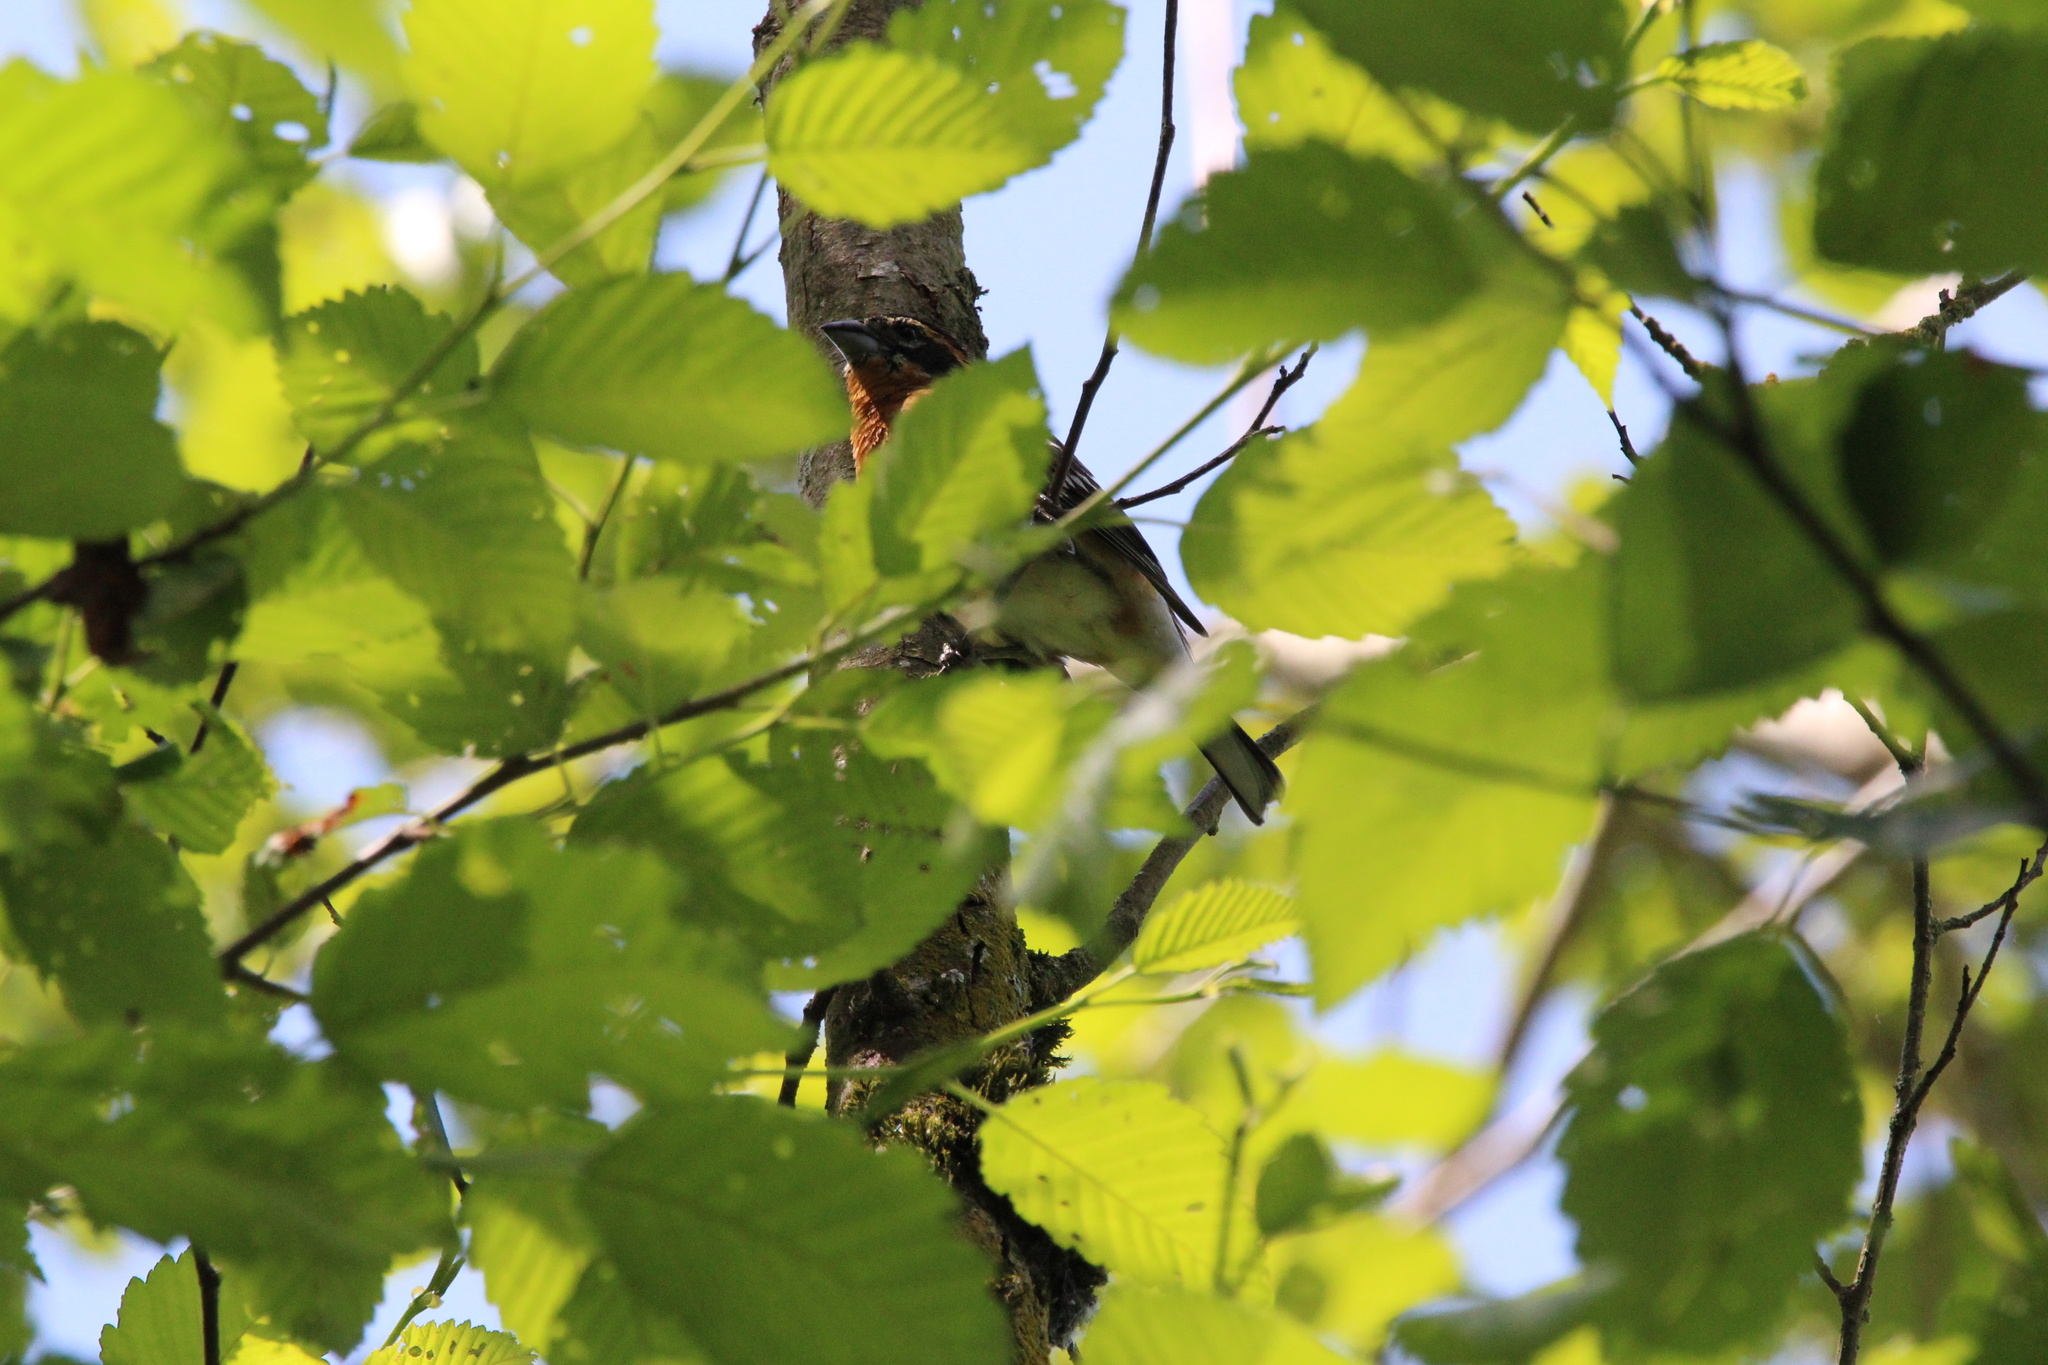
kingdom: Animalia
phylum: Chordata
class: Aves
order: Passeriformes
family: Cardinalidae
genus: Pheucticus
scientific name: Pheucticus melanocephalus
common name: Black-headed grosbeak
